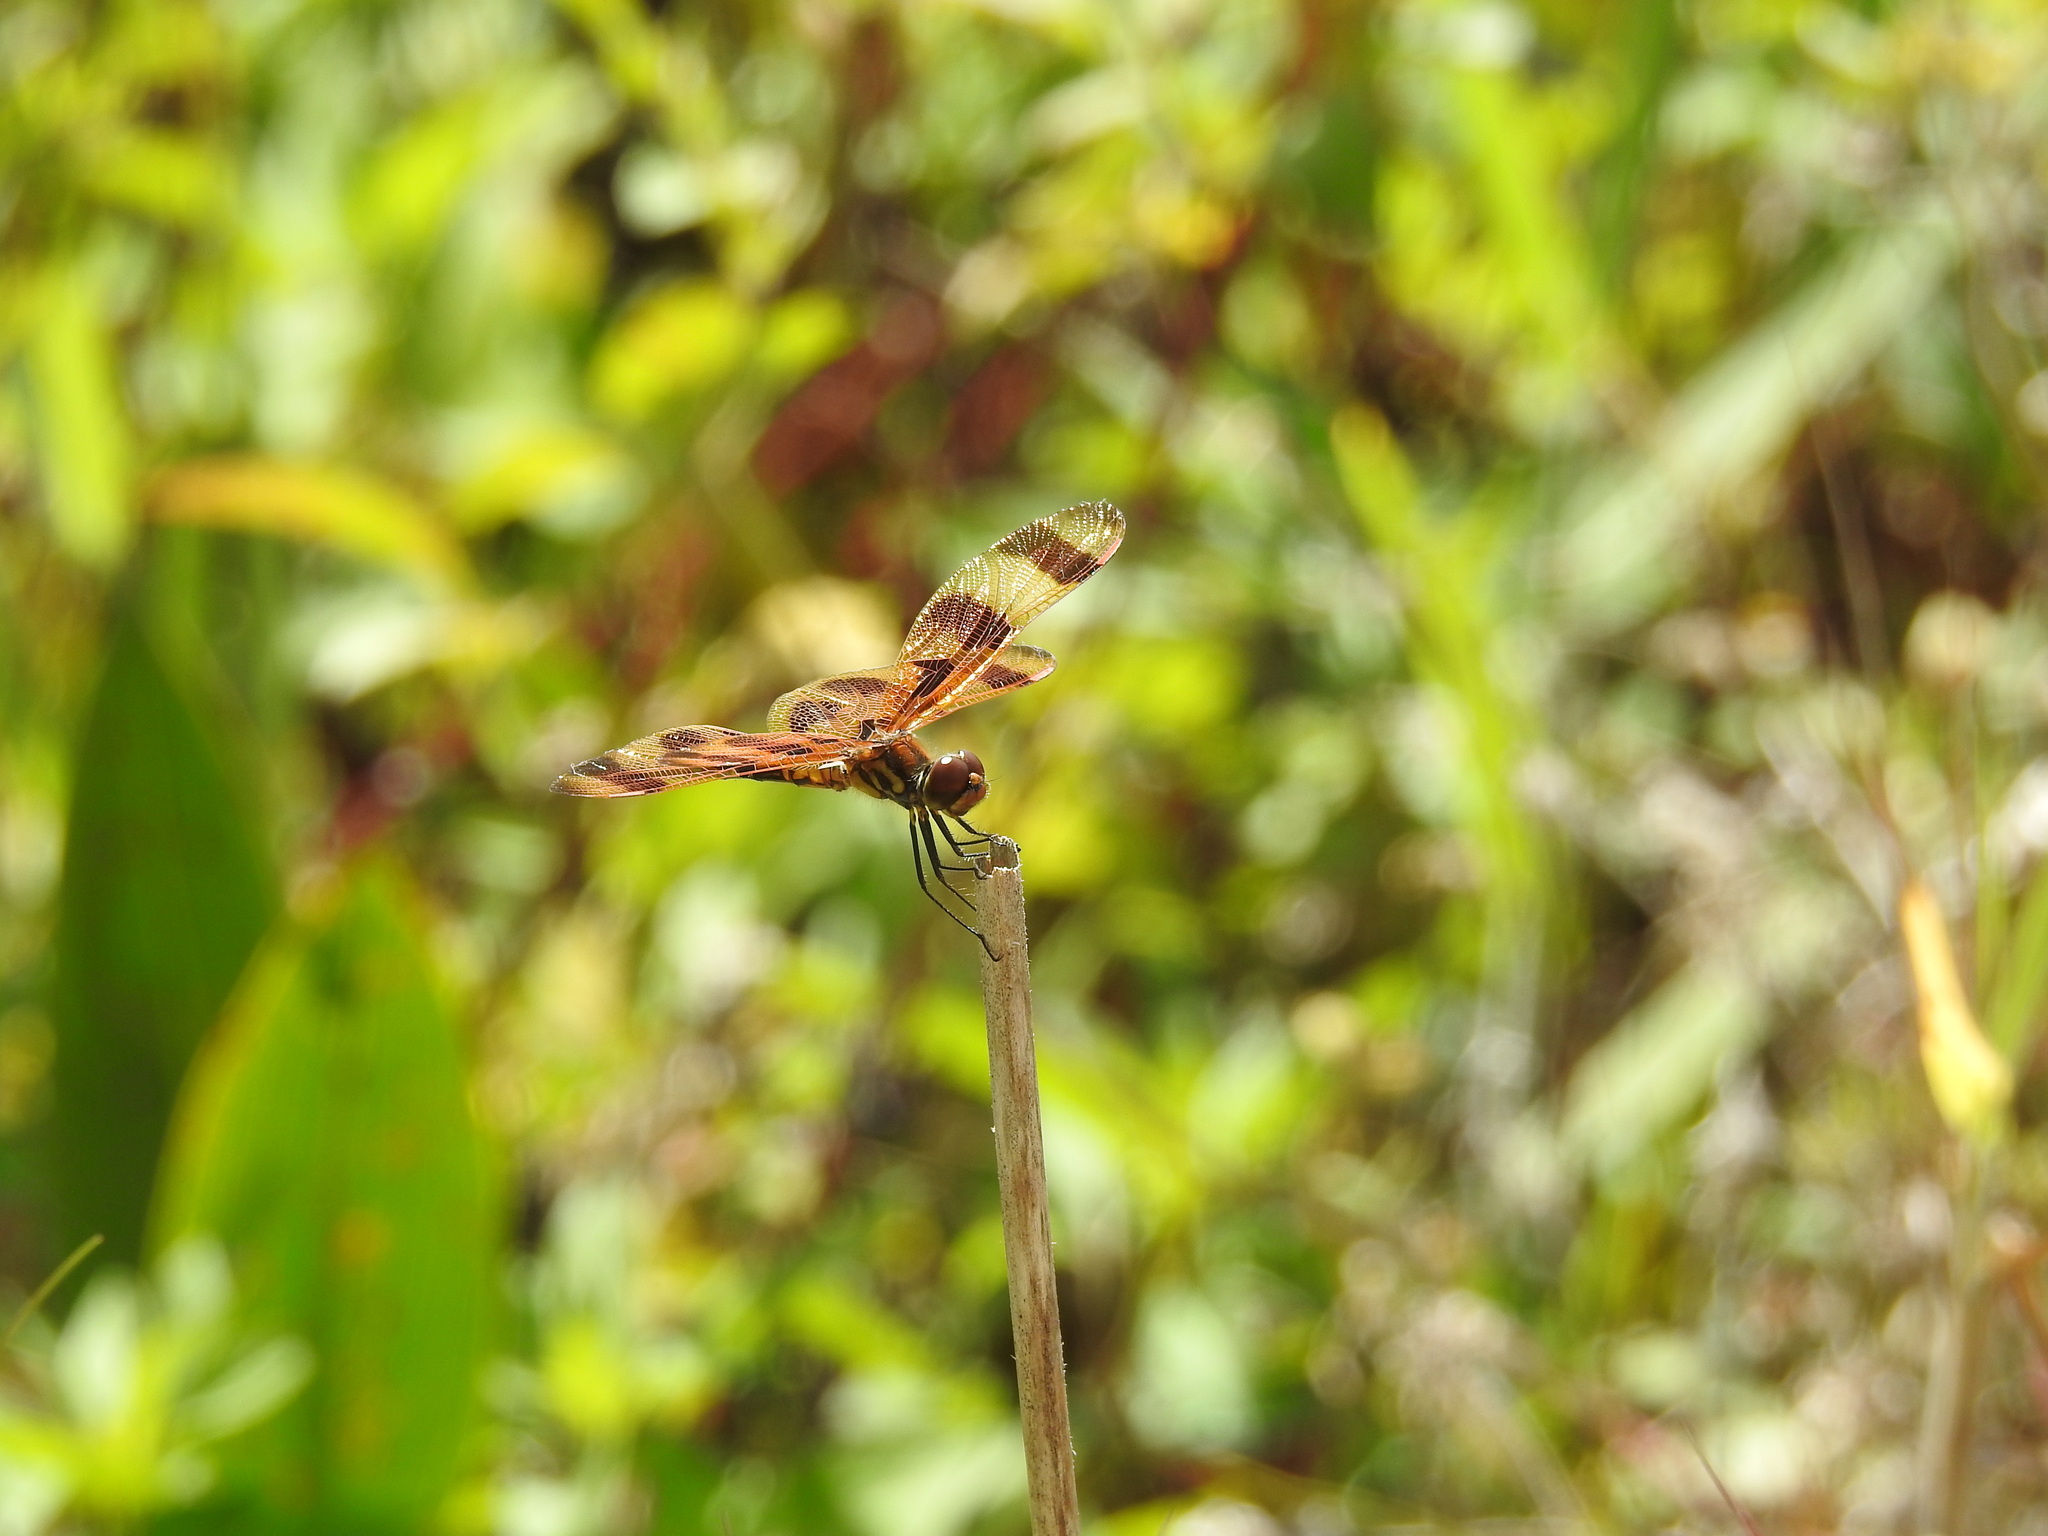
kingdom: Animalia
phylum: Arthropoda
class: Insecta
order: Odonata
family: Libellulidae
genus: Celithemis
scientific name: Celithemis eponina
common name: Halloween pennant
